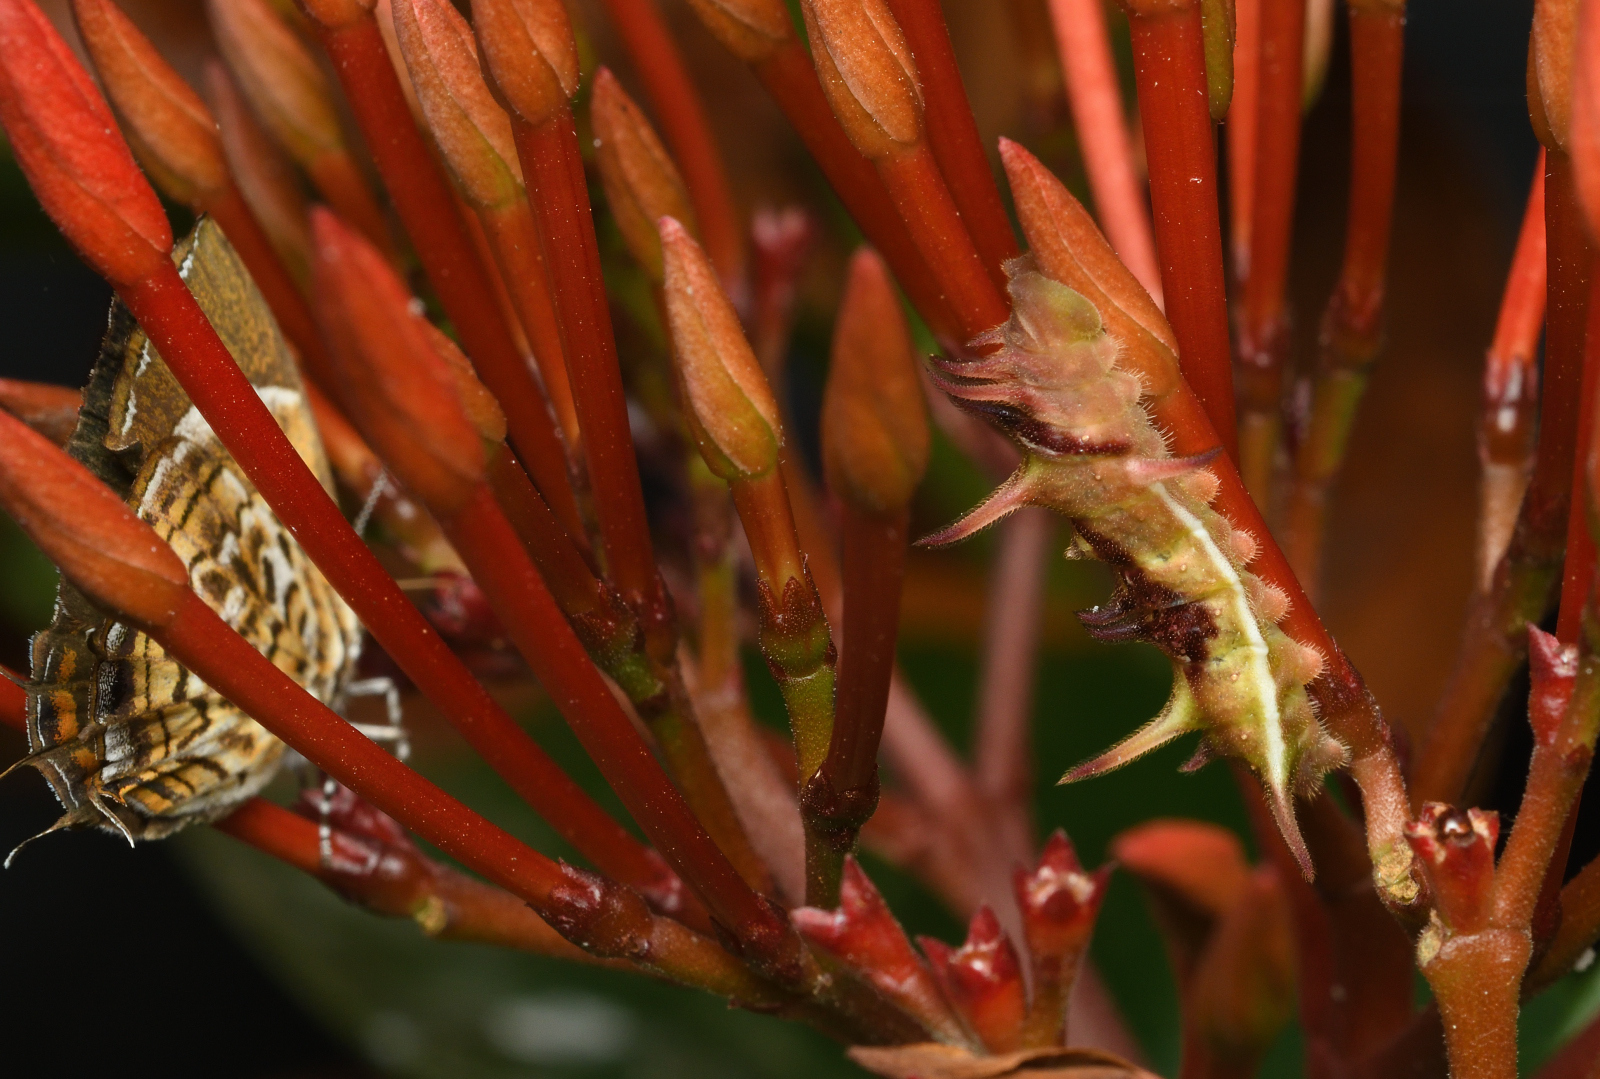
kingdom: Animalia
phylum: Arthropoda
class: Insecta
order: Lepidoptera
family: Lycaenidae
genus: Rathinda
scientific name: Rathinda amor
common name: Monkey puzzle
